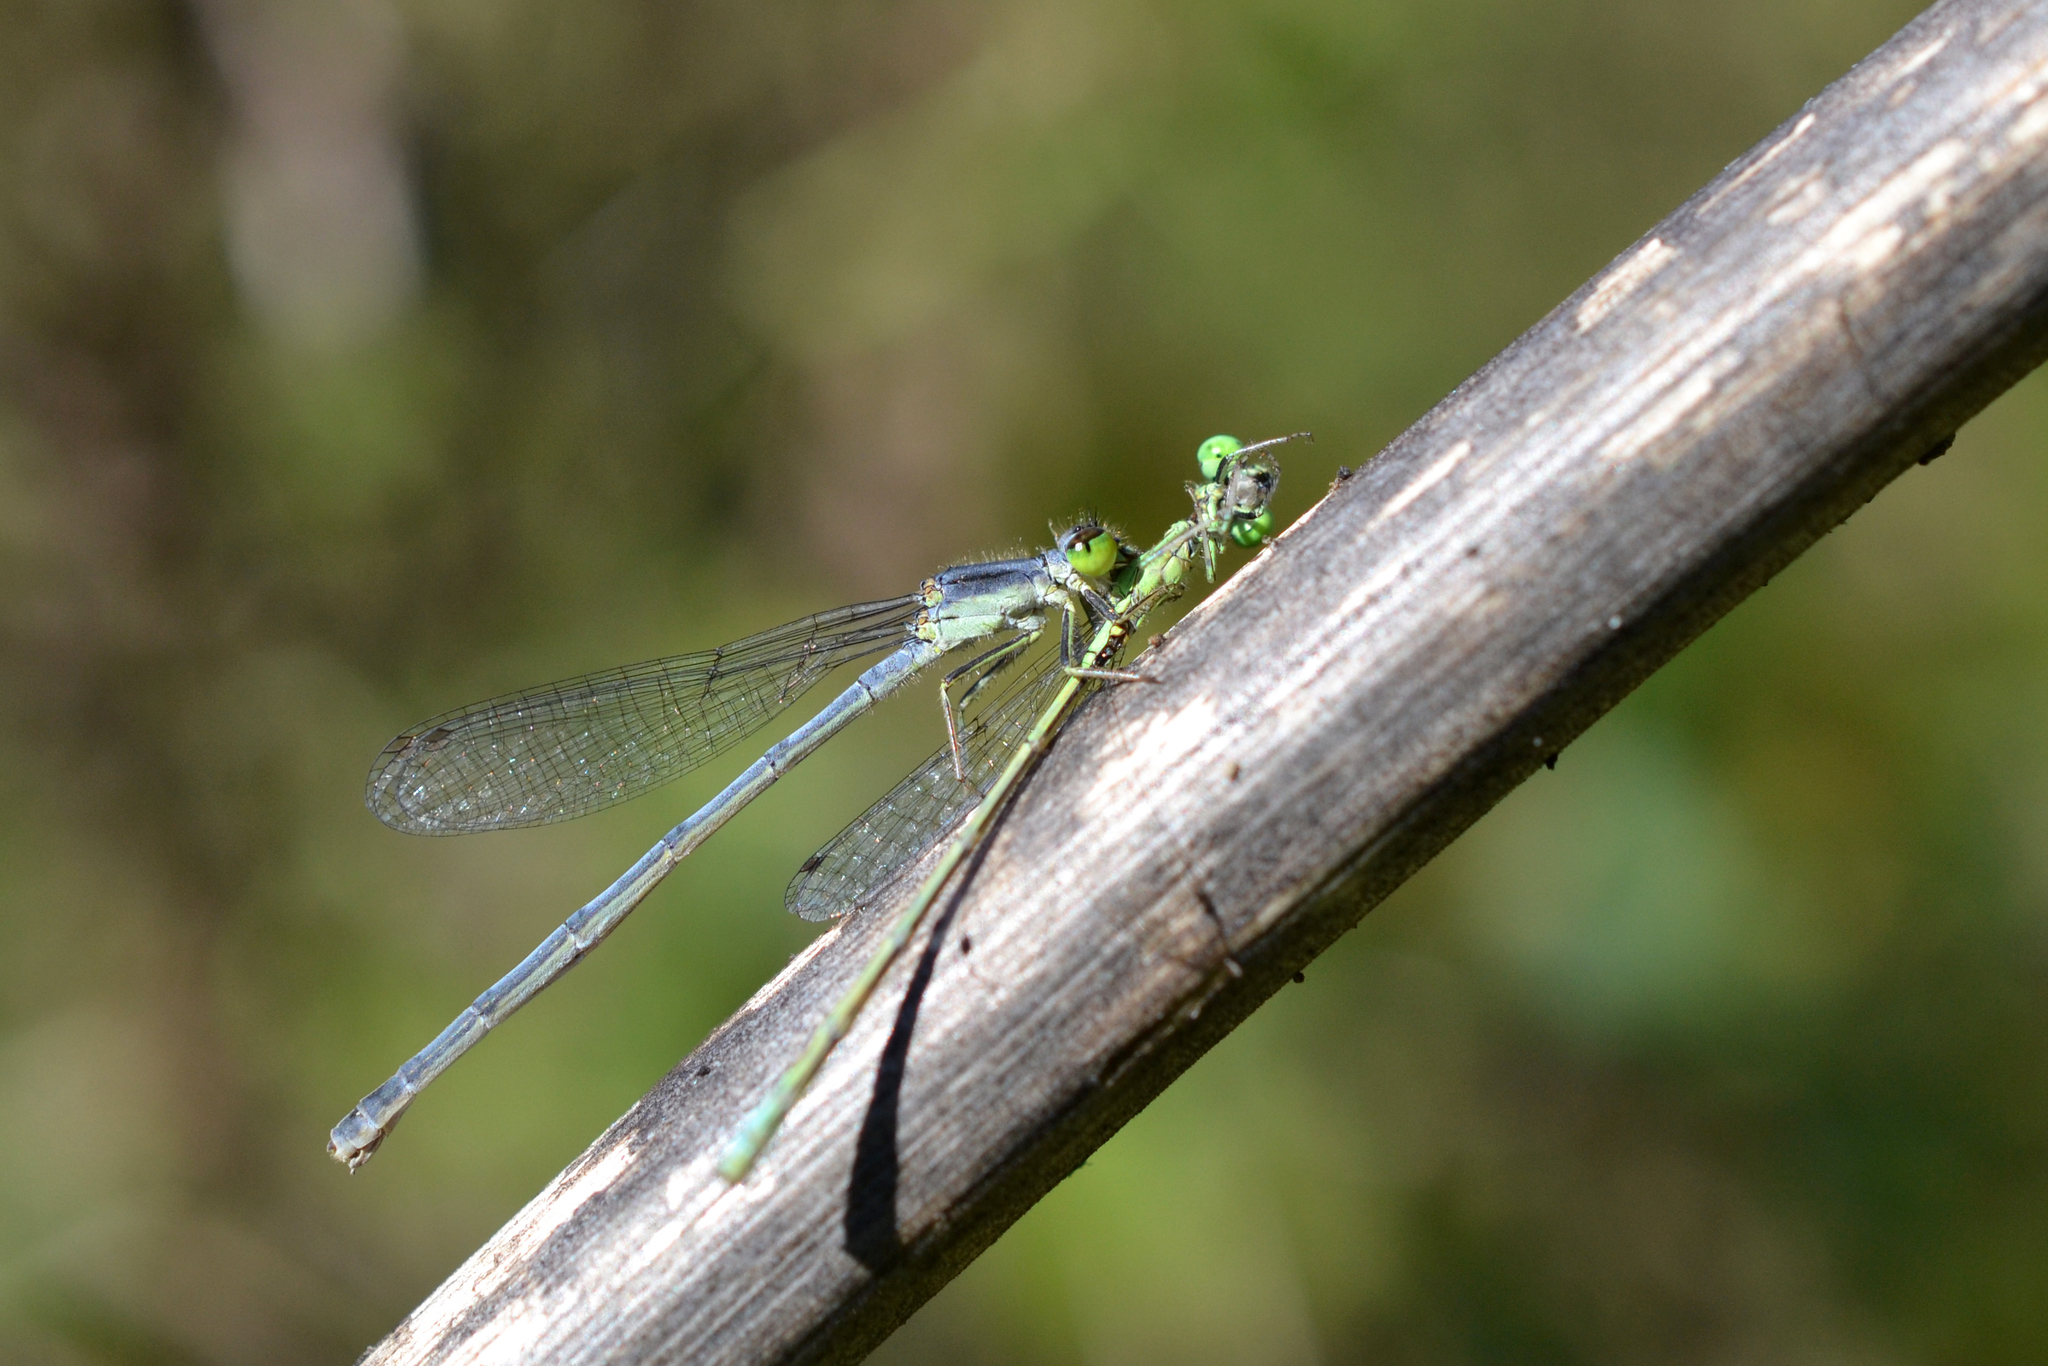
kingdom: Animalia
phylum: Arthropoda
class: Insecta
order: Odonata
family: Coenagrionidae
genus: Ischnura
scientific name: Ischnura verticalis
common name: Eastern forktail
